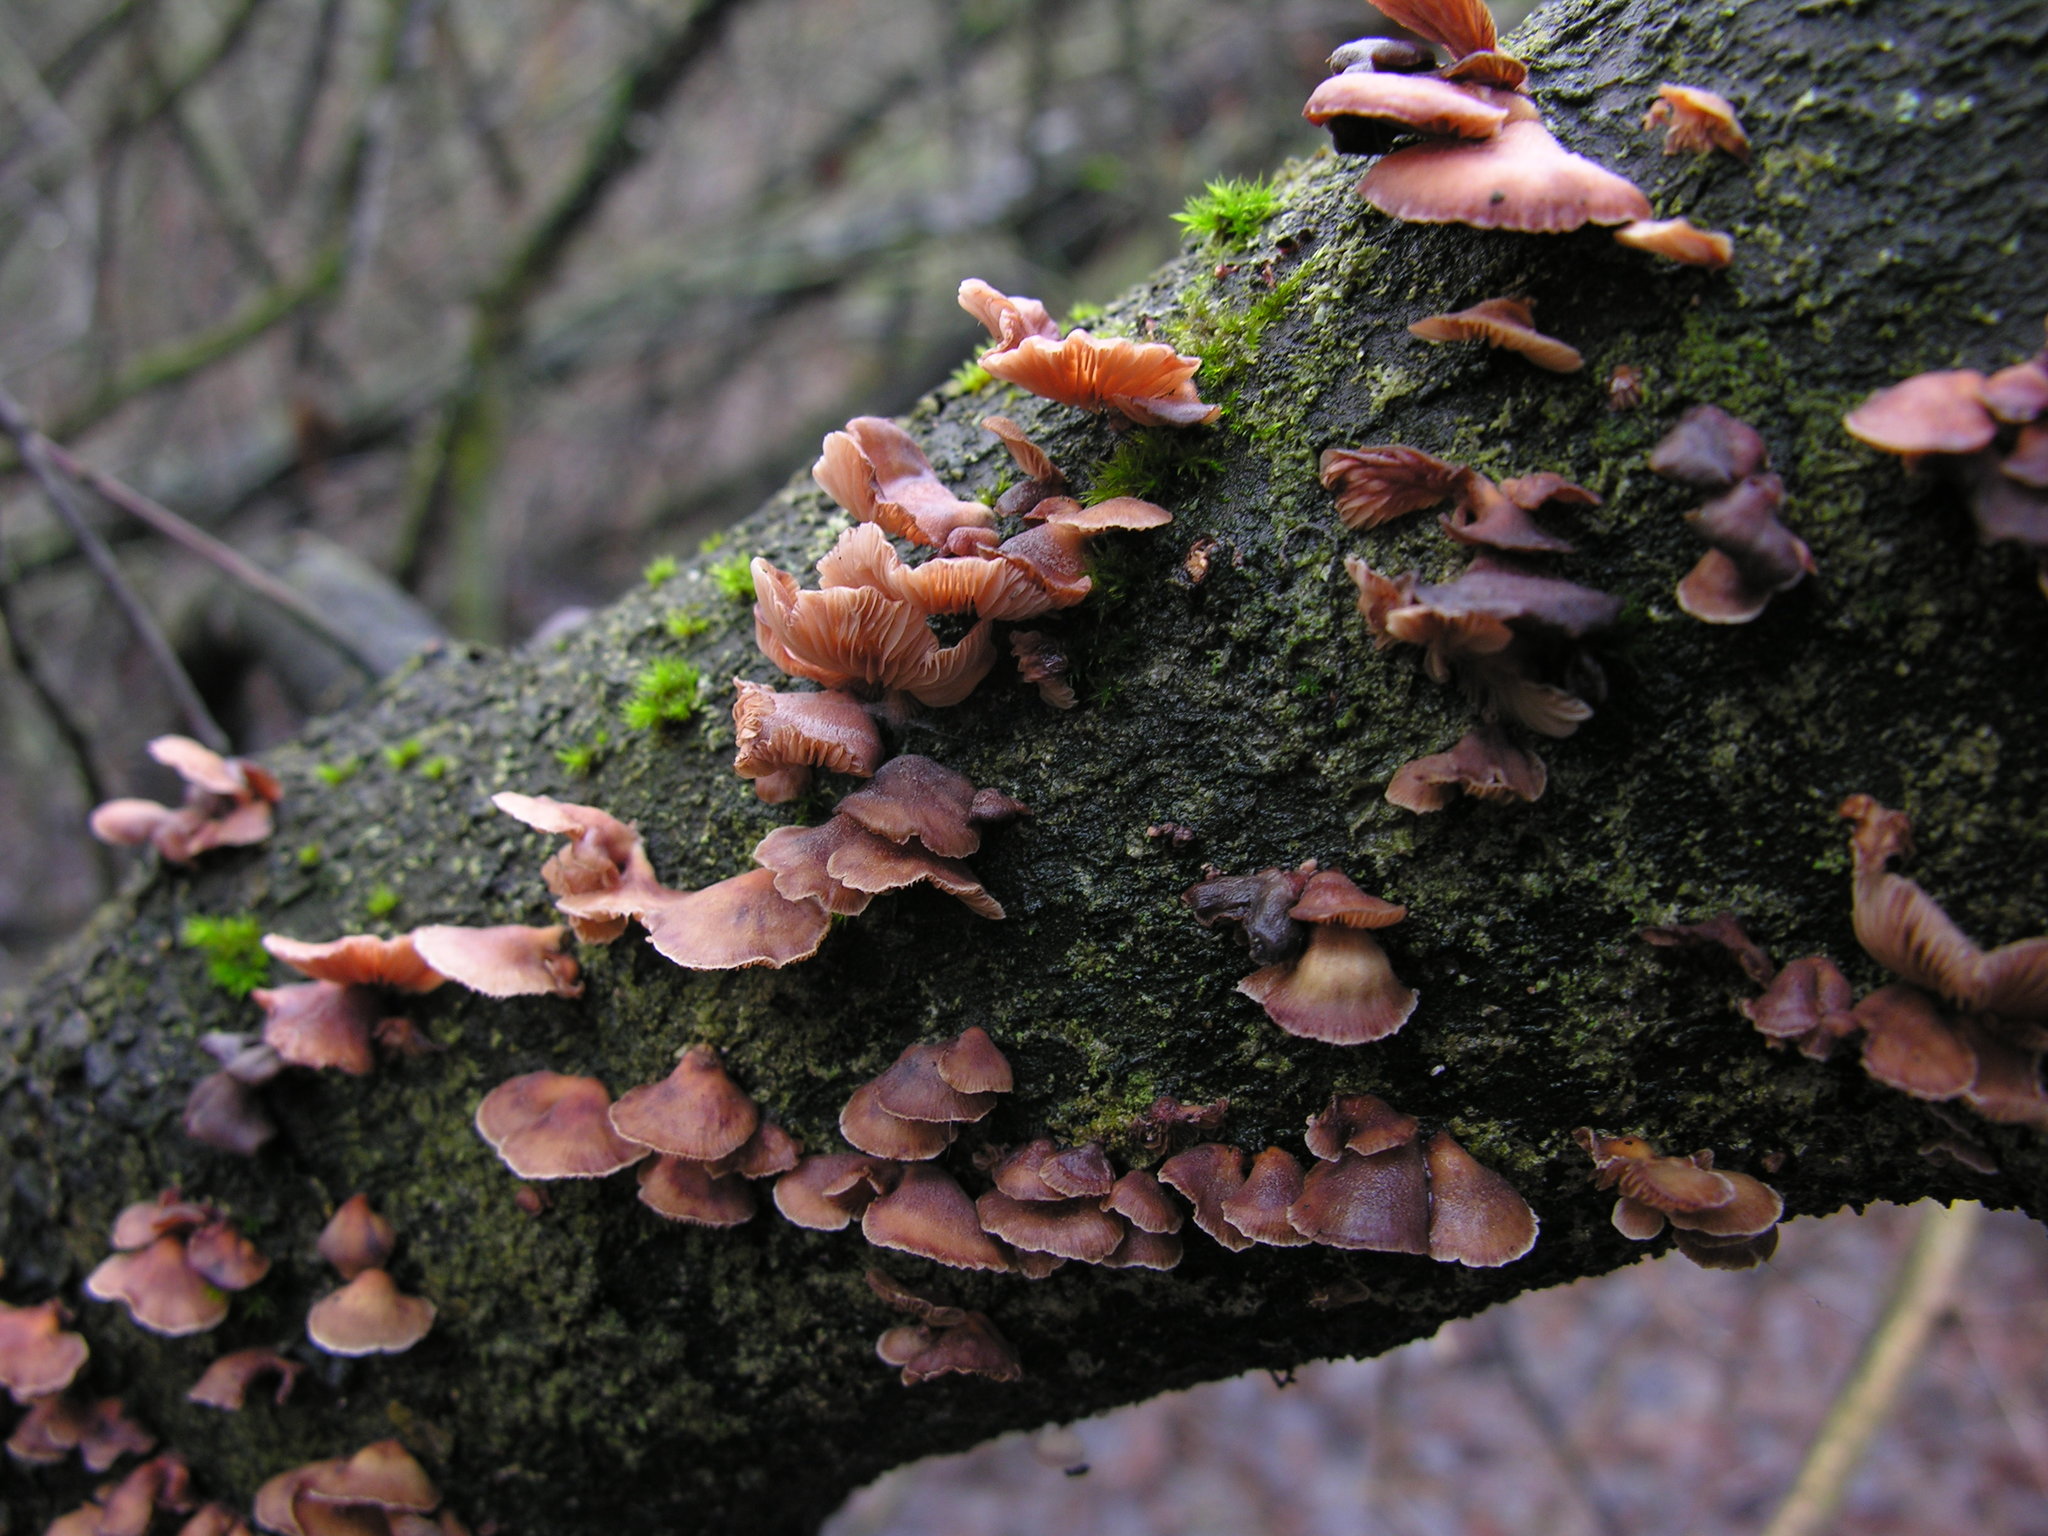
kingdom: Fungi
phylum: Basidiomycota
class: Agaricomycetes
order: Agaricales
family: Mycenaceae
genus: Panellus
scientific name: Panellus ringens
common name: Winter oysterling
